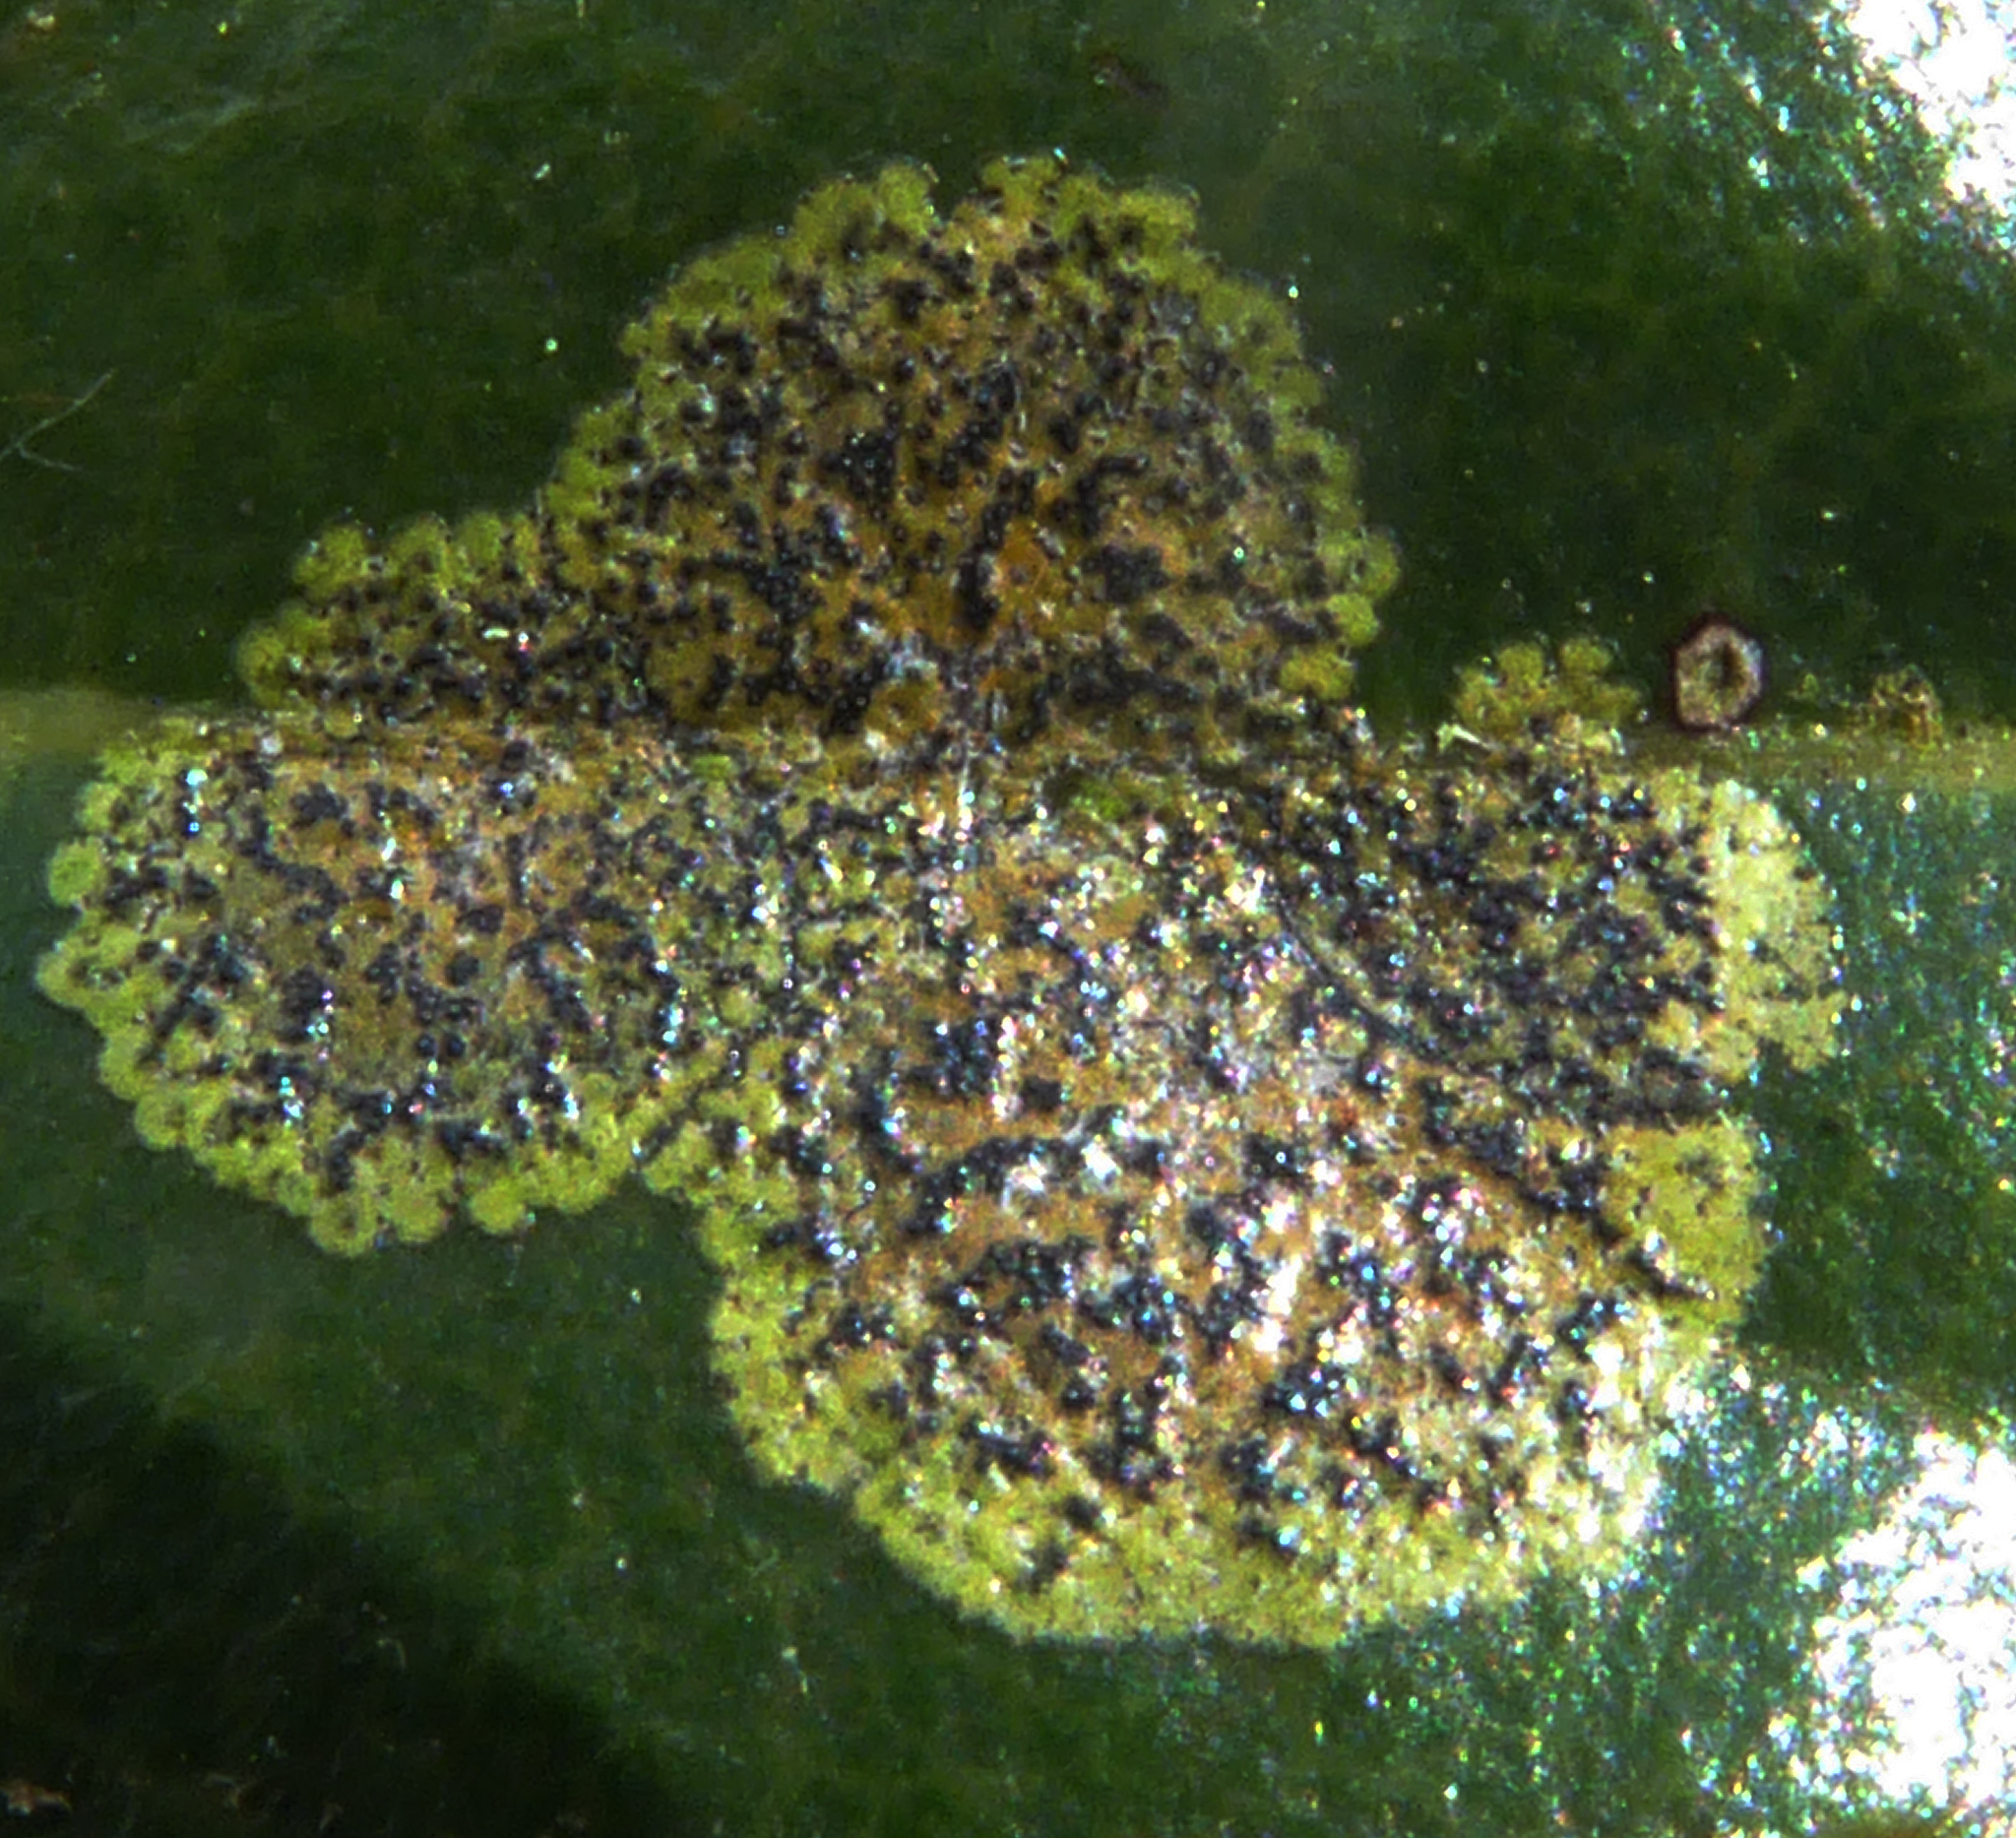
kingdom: Fungi
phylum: Ascomycota
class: Dothideomycetes
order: Strigulales
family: Strigulaceae
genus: Strigula
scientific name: Strigula oleistrata
